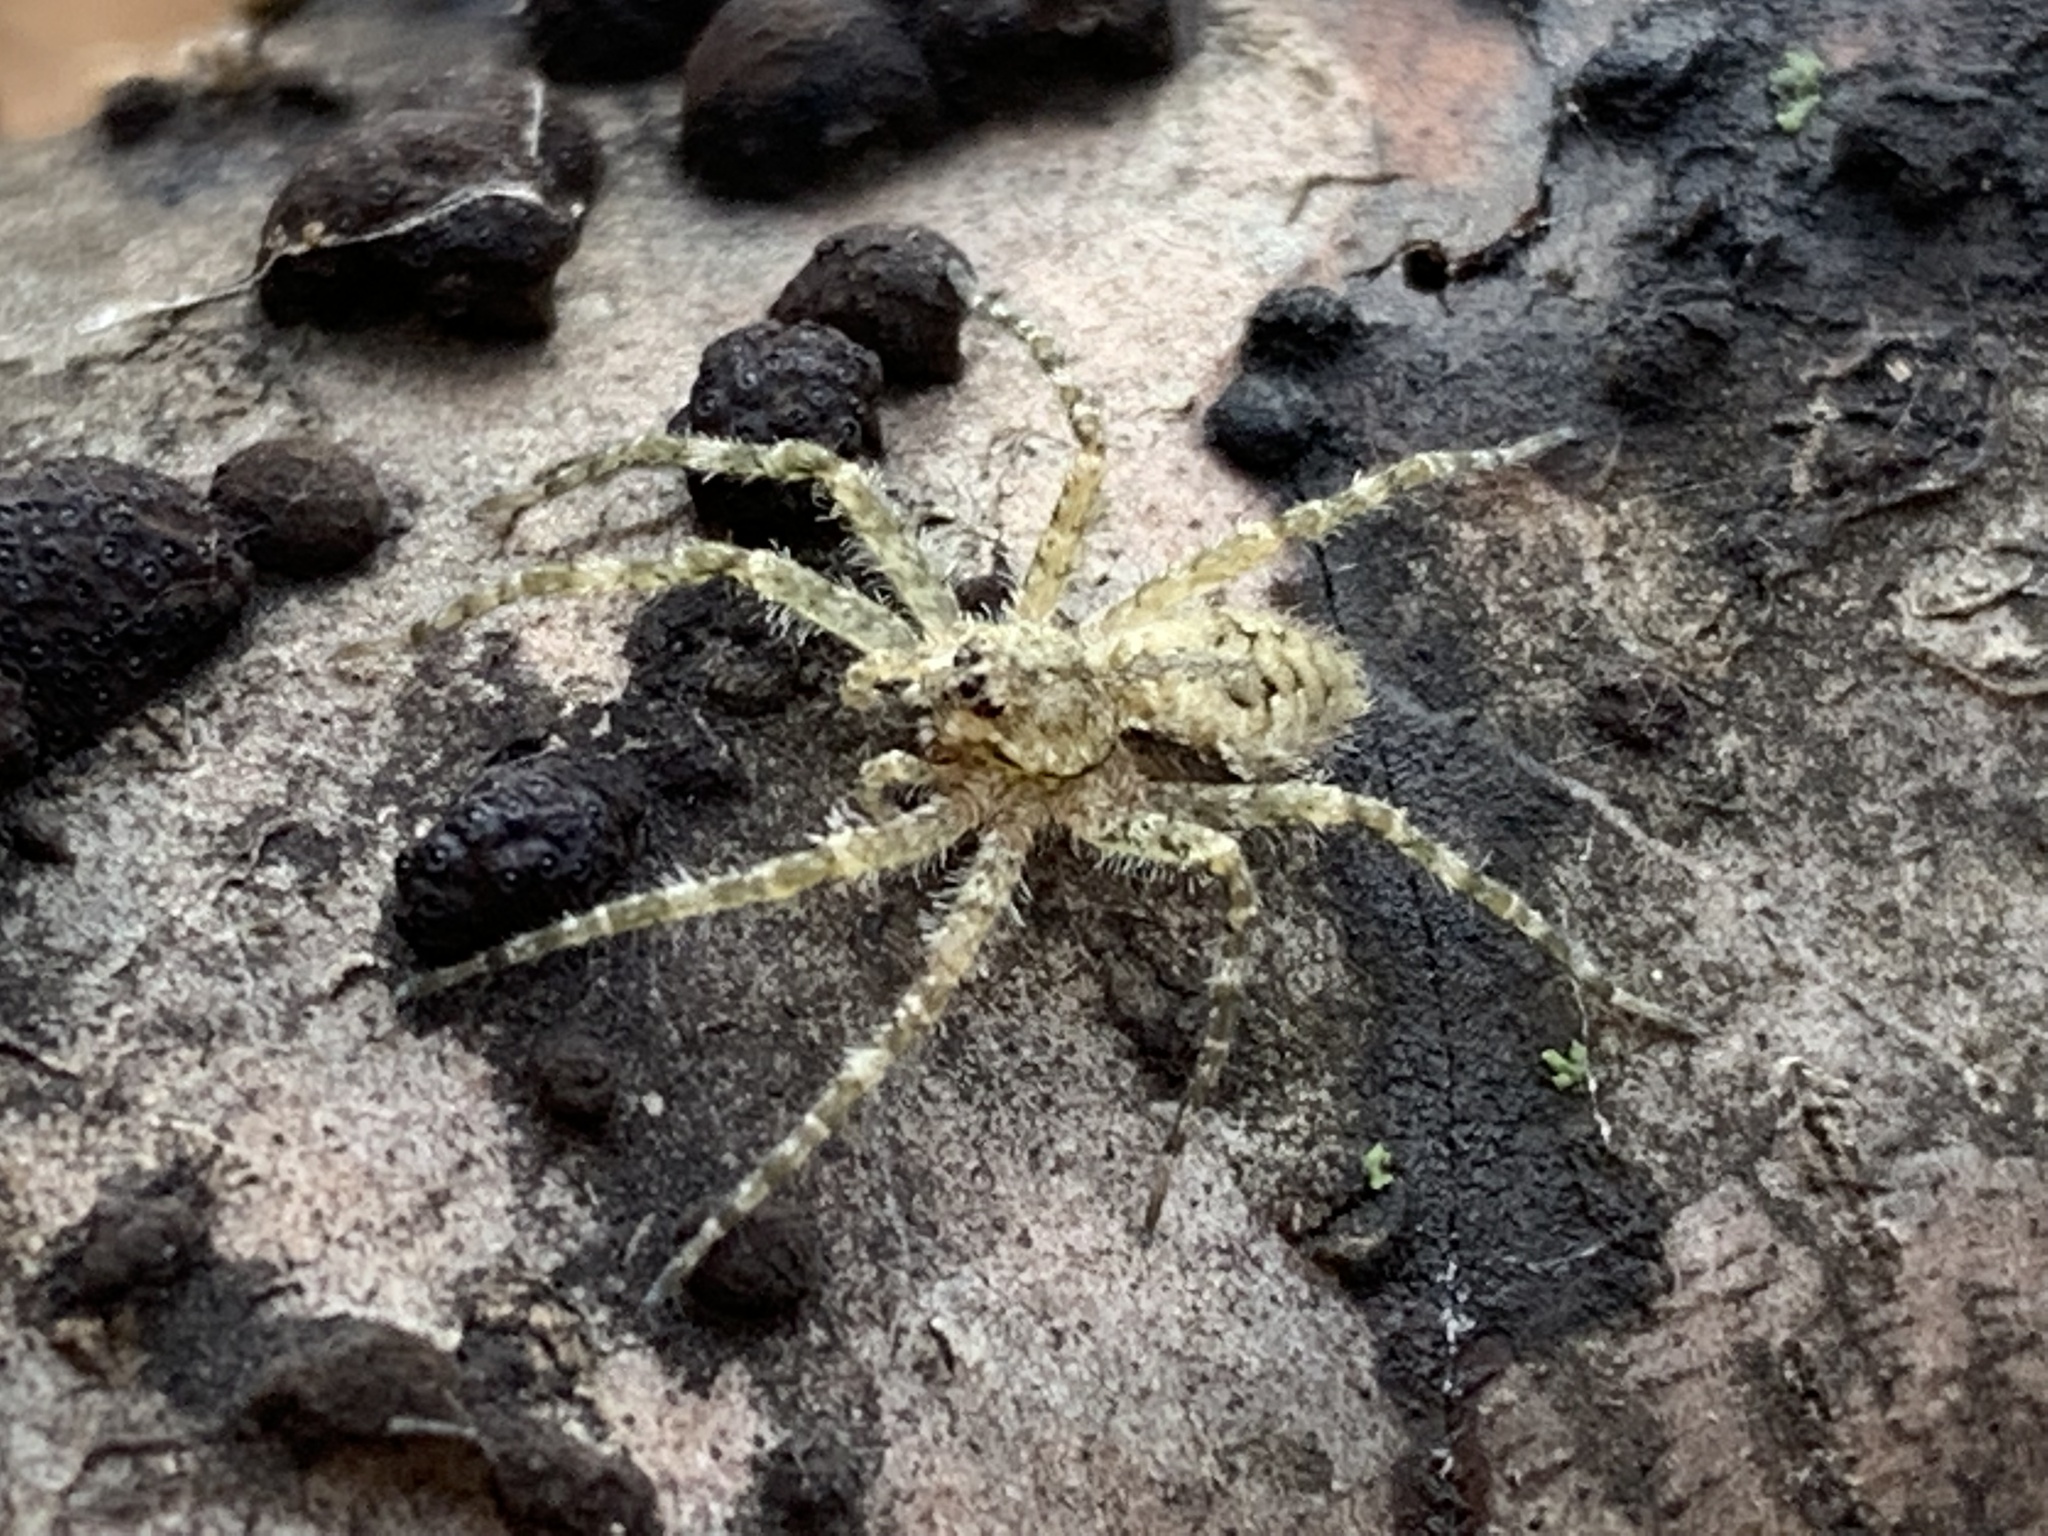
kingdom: Animalia
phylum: Arthropoda
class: Arachnida
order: Araneae
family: Pisauridae
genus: Dolomedes
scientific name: Dolomedes albineus
